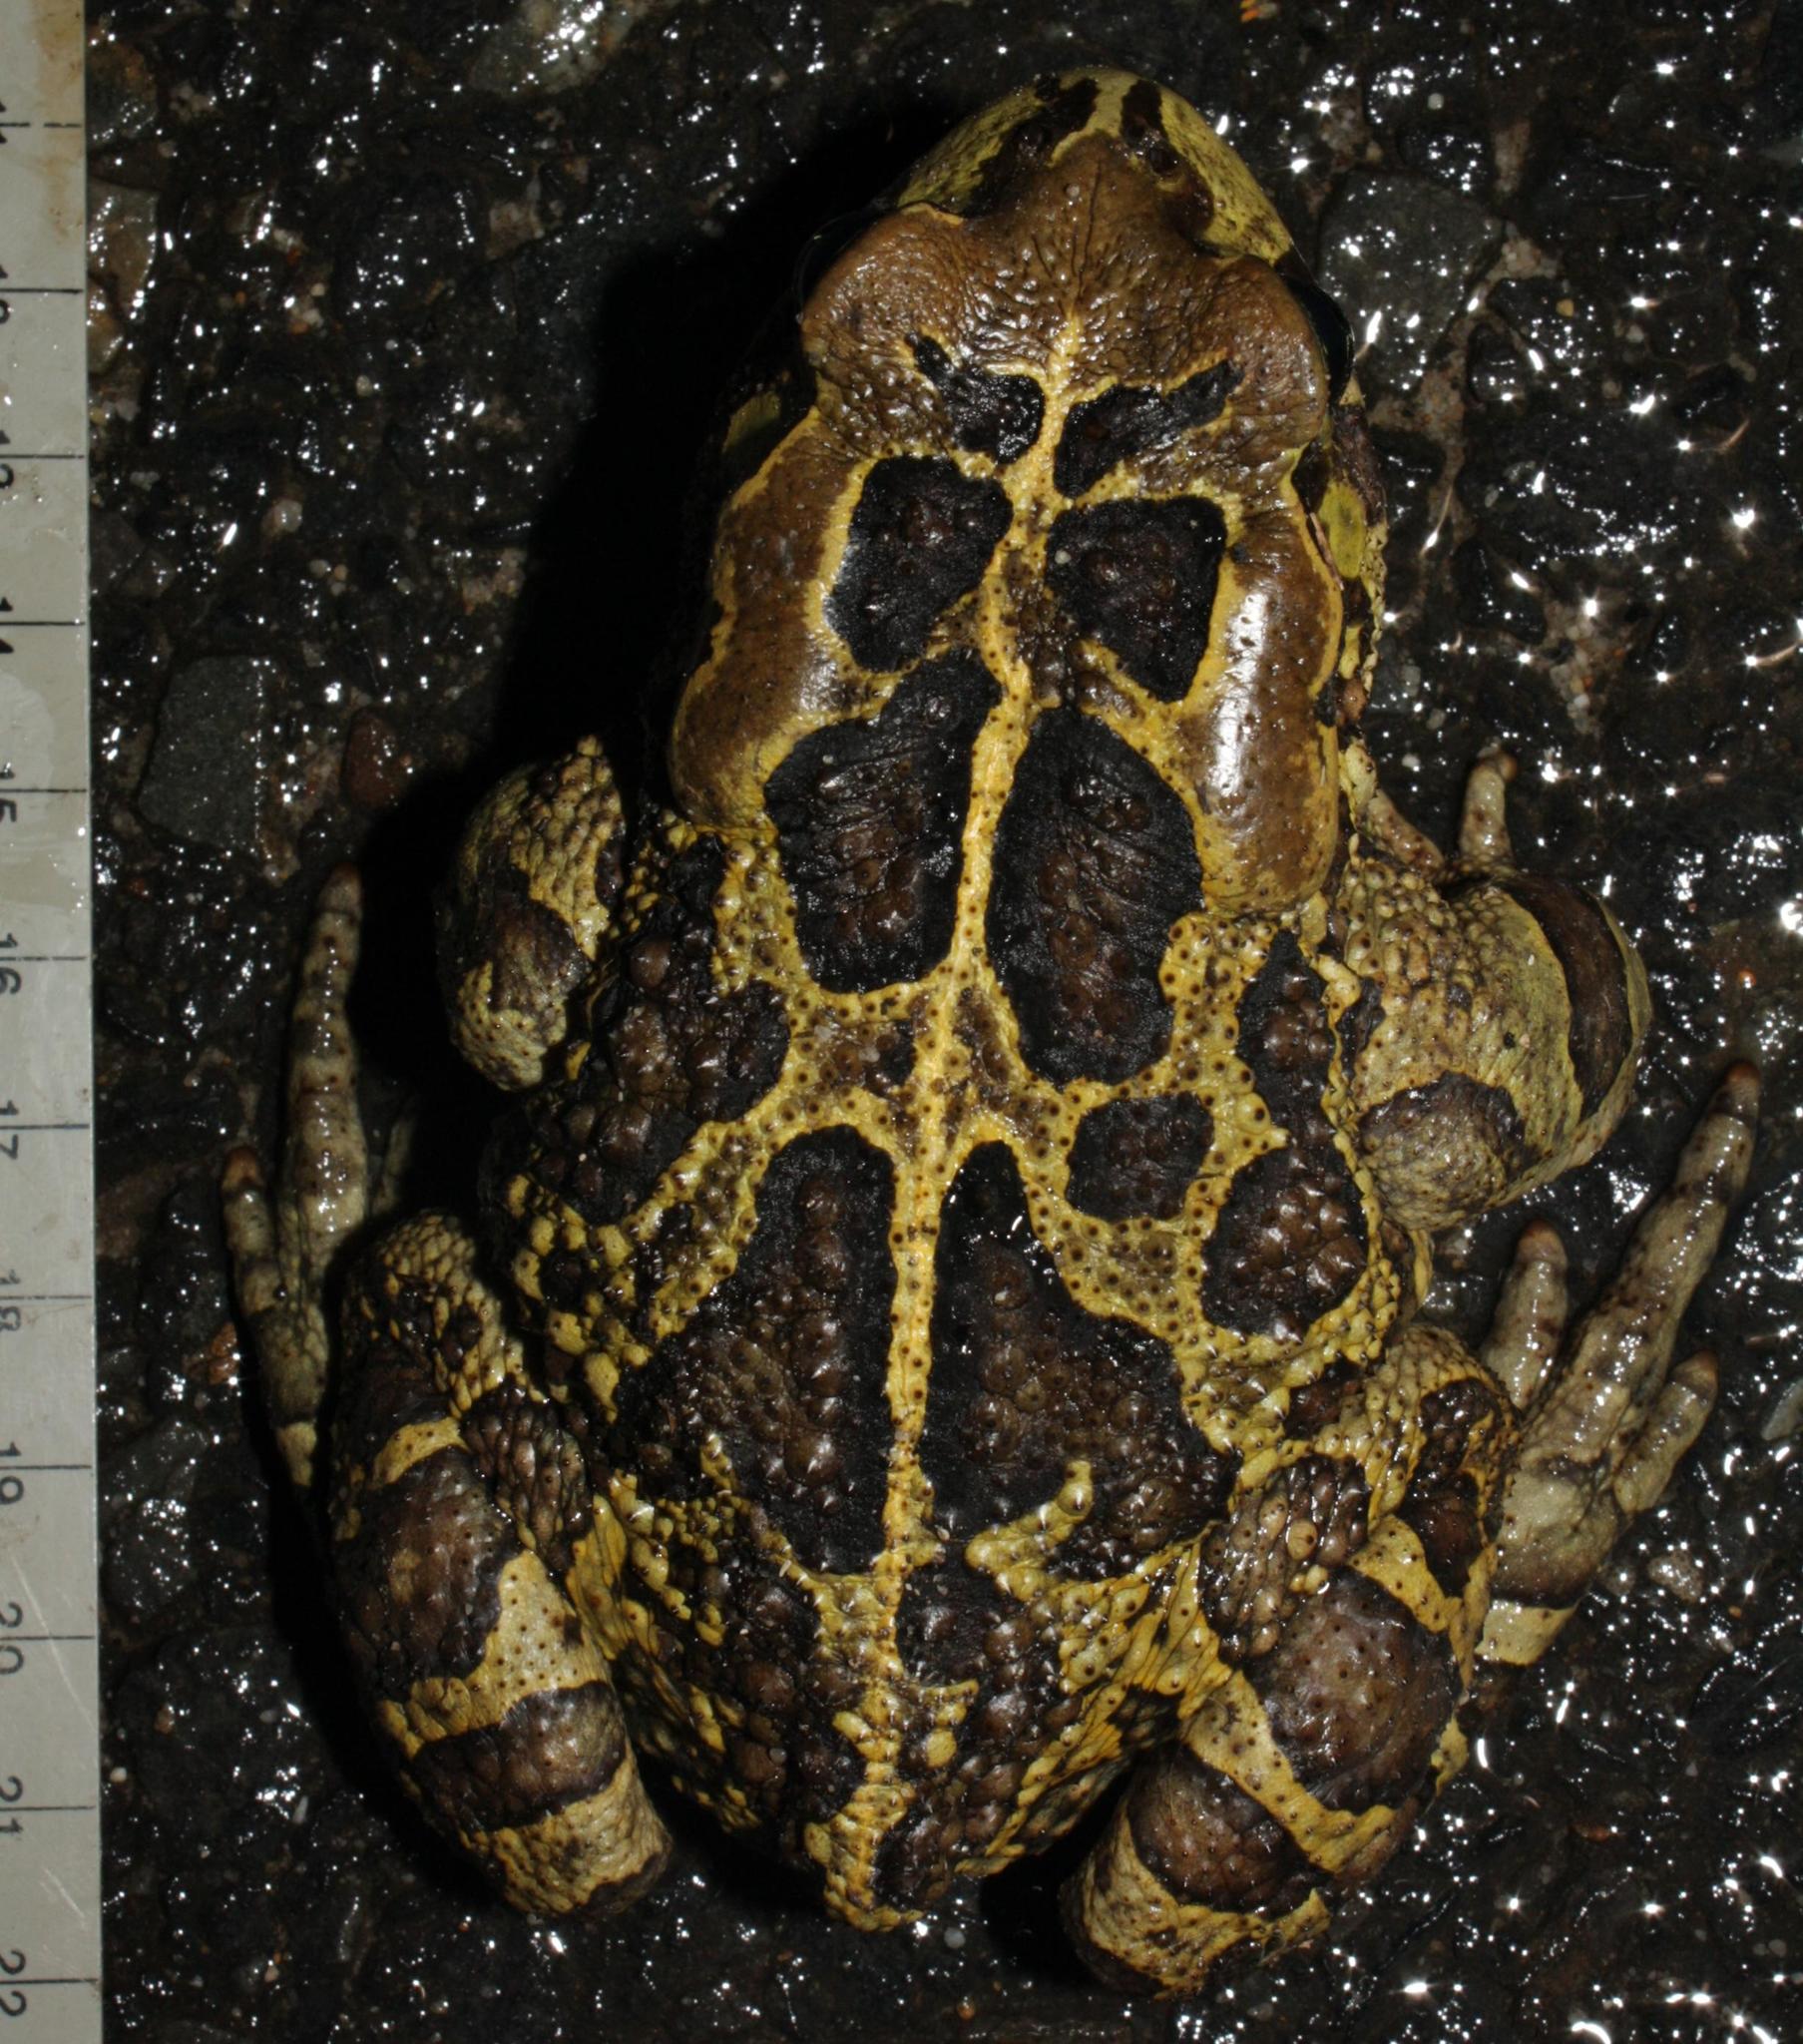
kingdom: Animalia
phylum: Chordata
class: Amphibia
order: Anura
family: Bufonidae
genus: Sclerophrys
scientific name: Sclerophrys pantherina
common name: Panther toad
